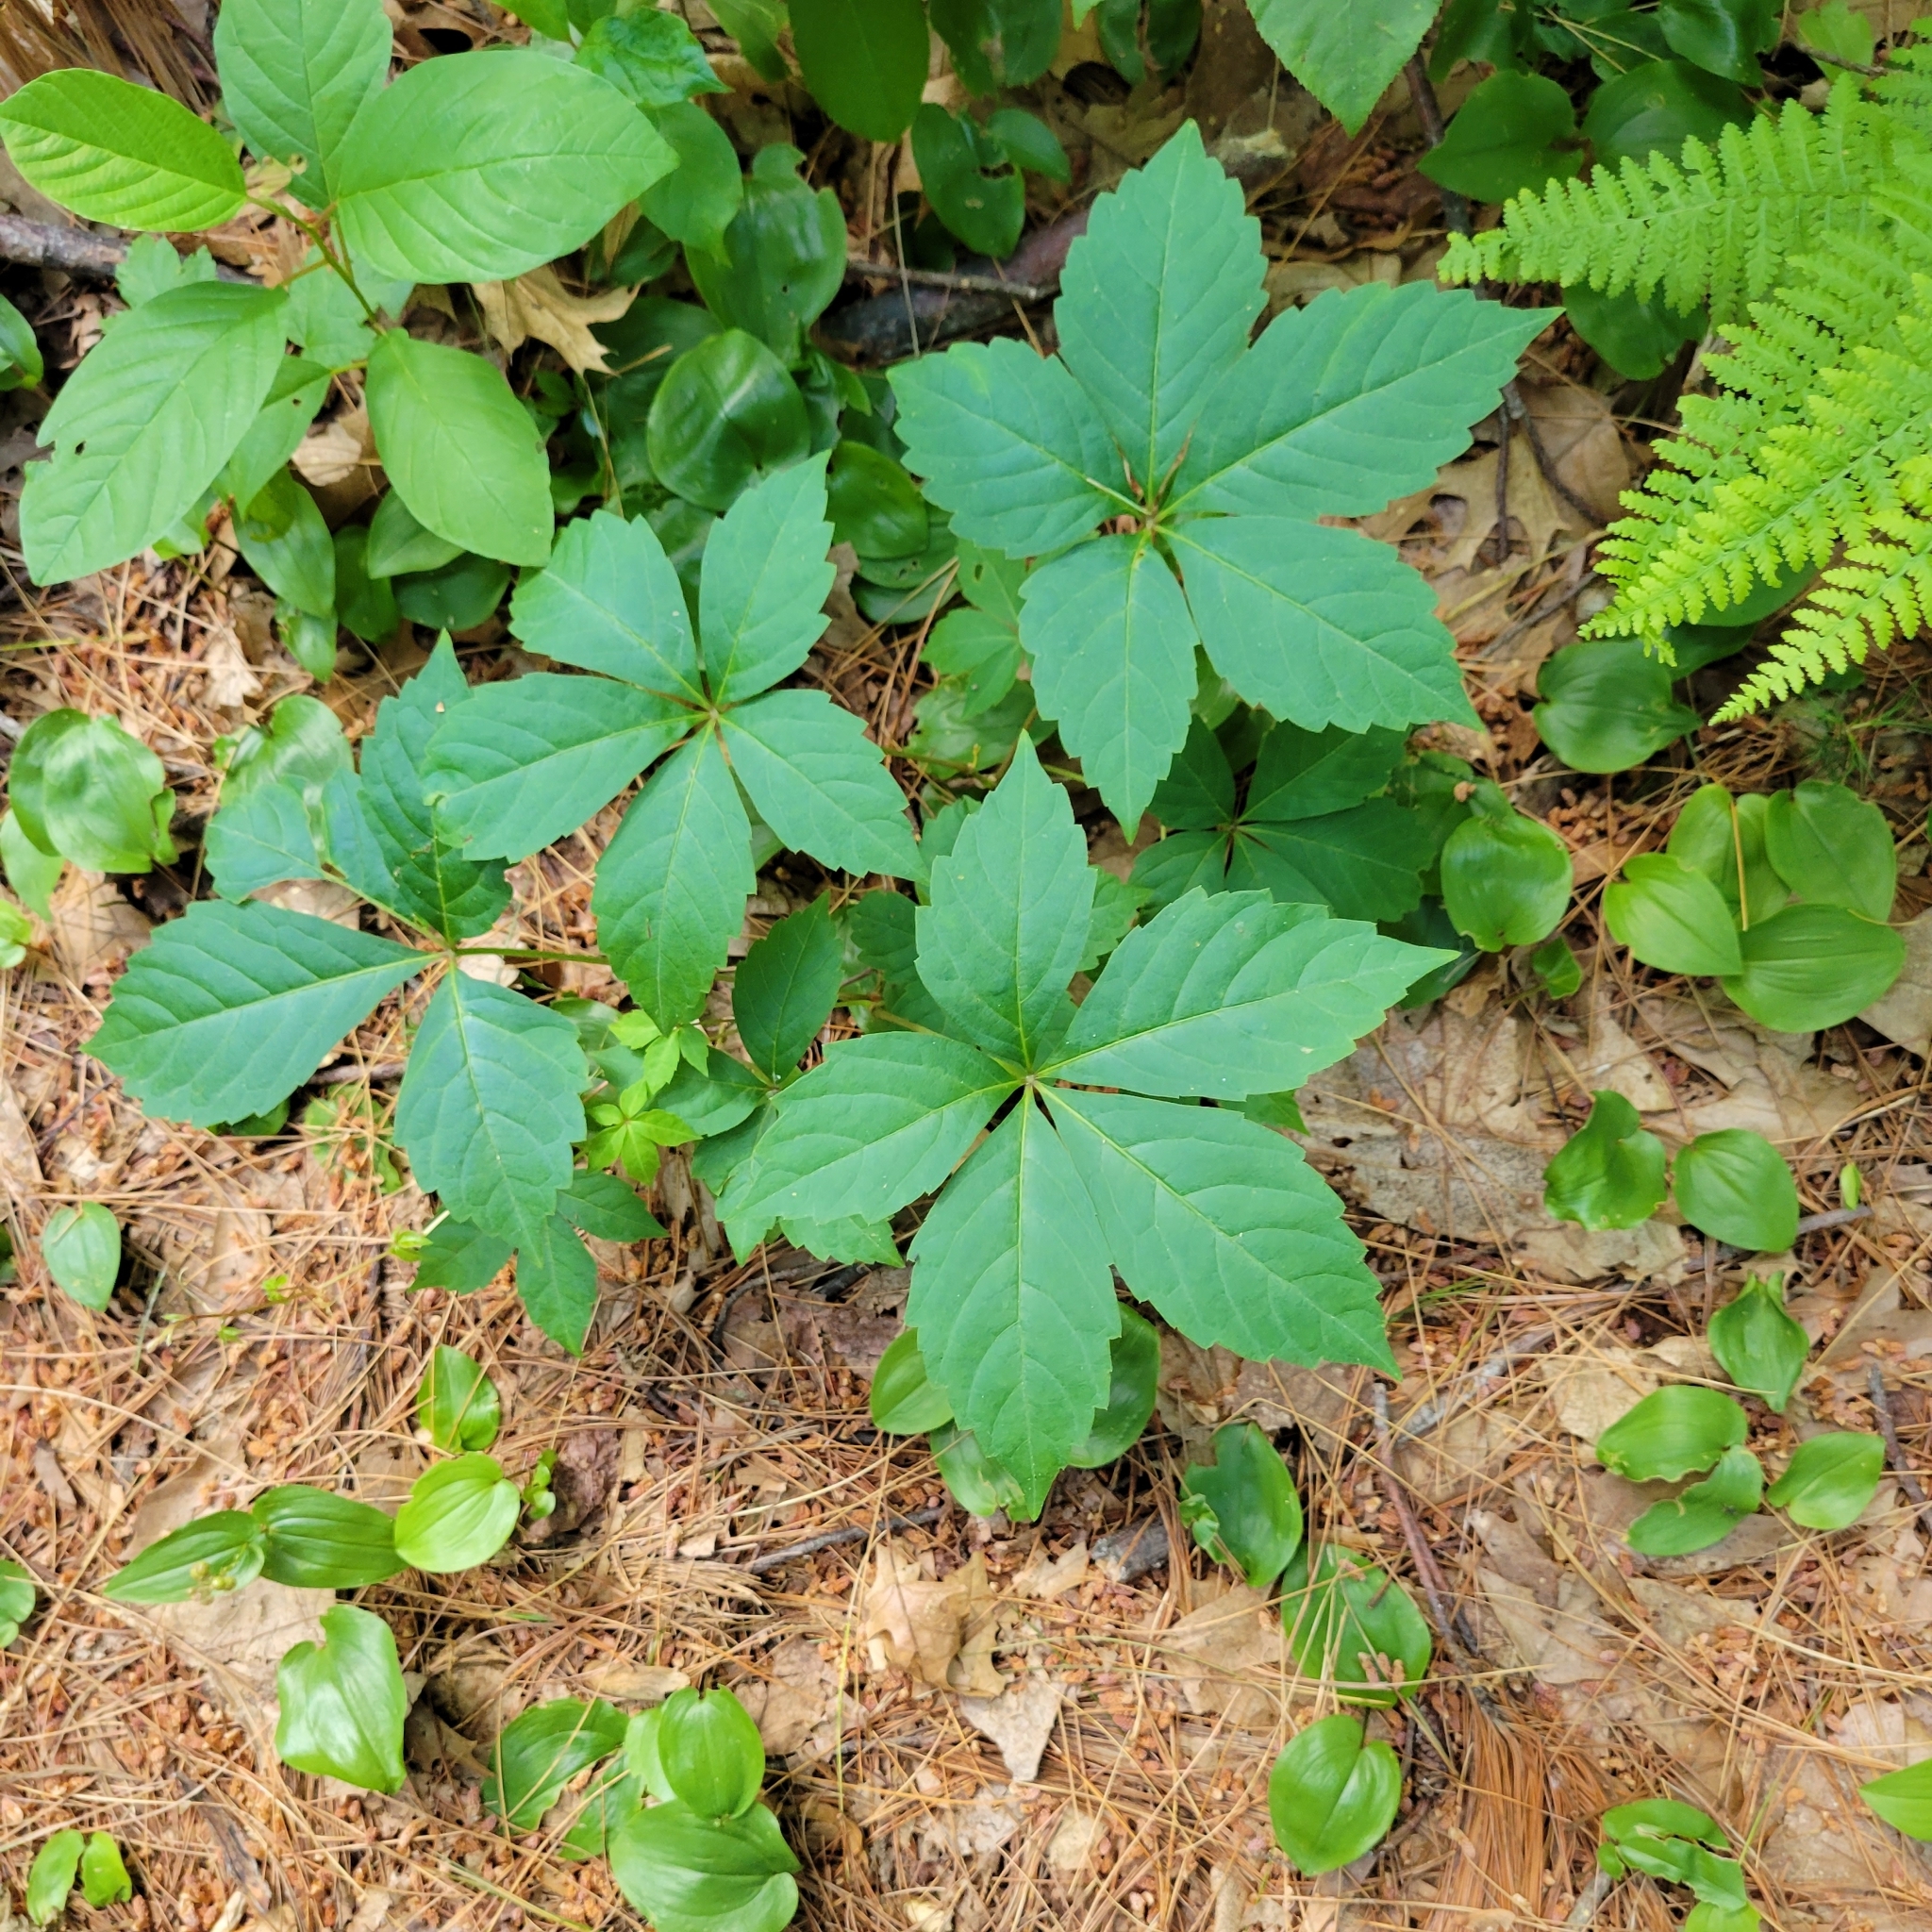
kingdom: Plantae
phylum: Tracheophyta
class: Magnoliopsida
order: Vitales
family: Vitaceae
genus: Parthenocissus
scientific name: Parthenocissus quinquefolia
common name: Virginia-creeper
